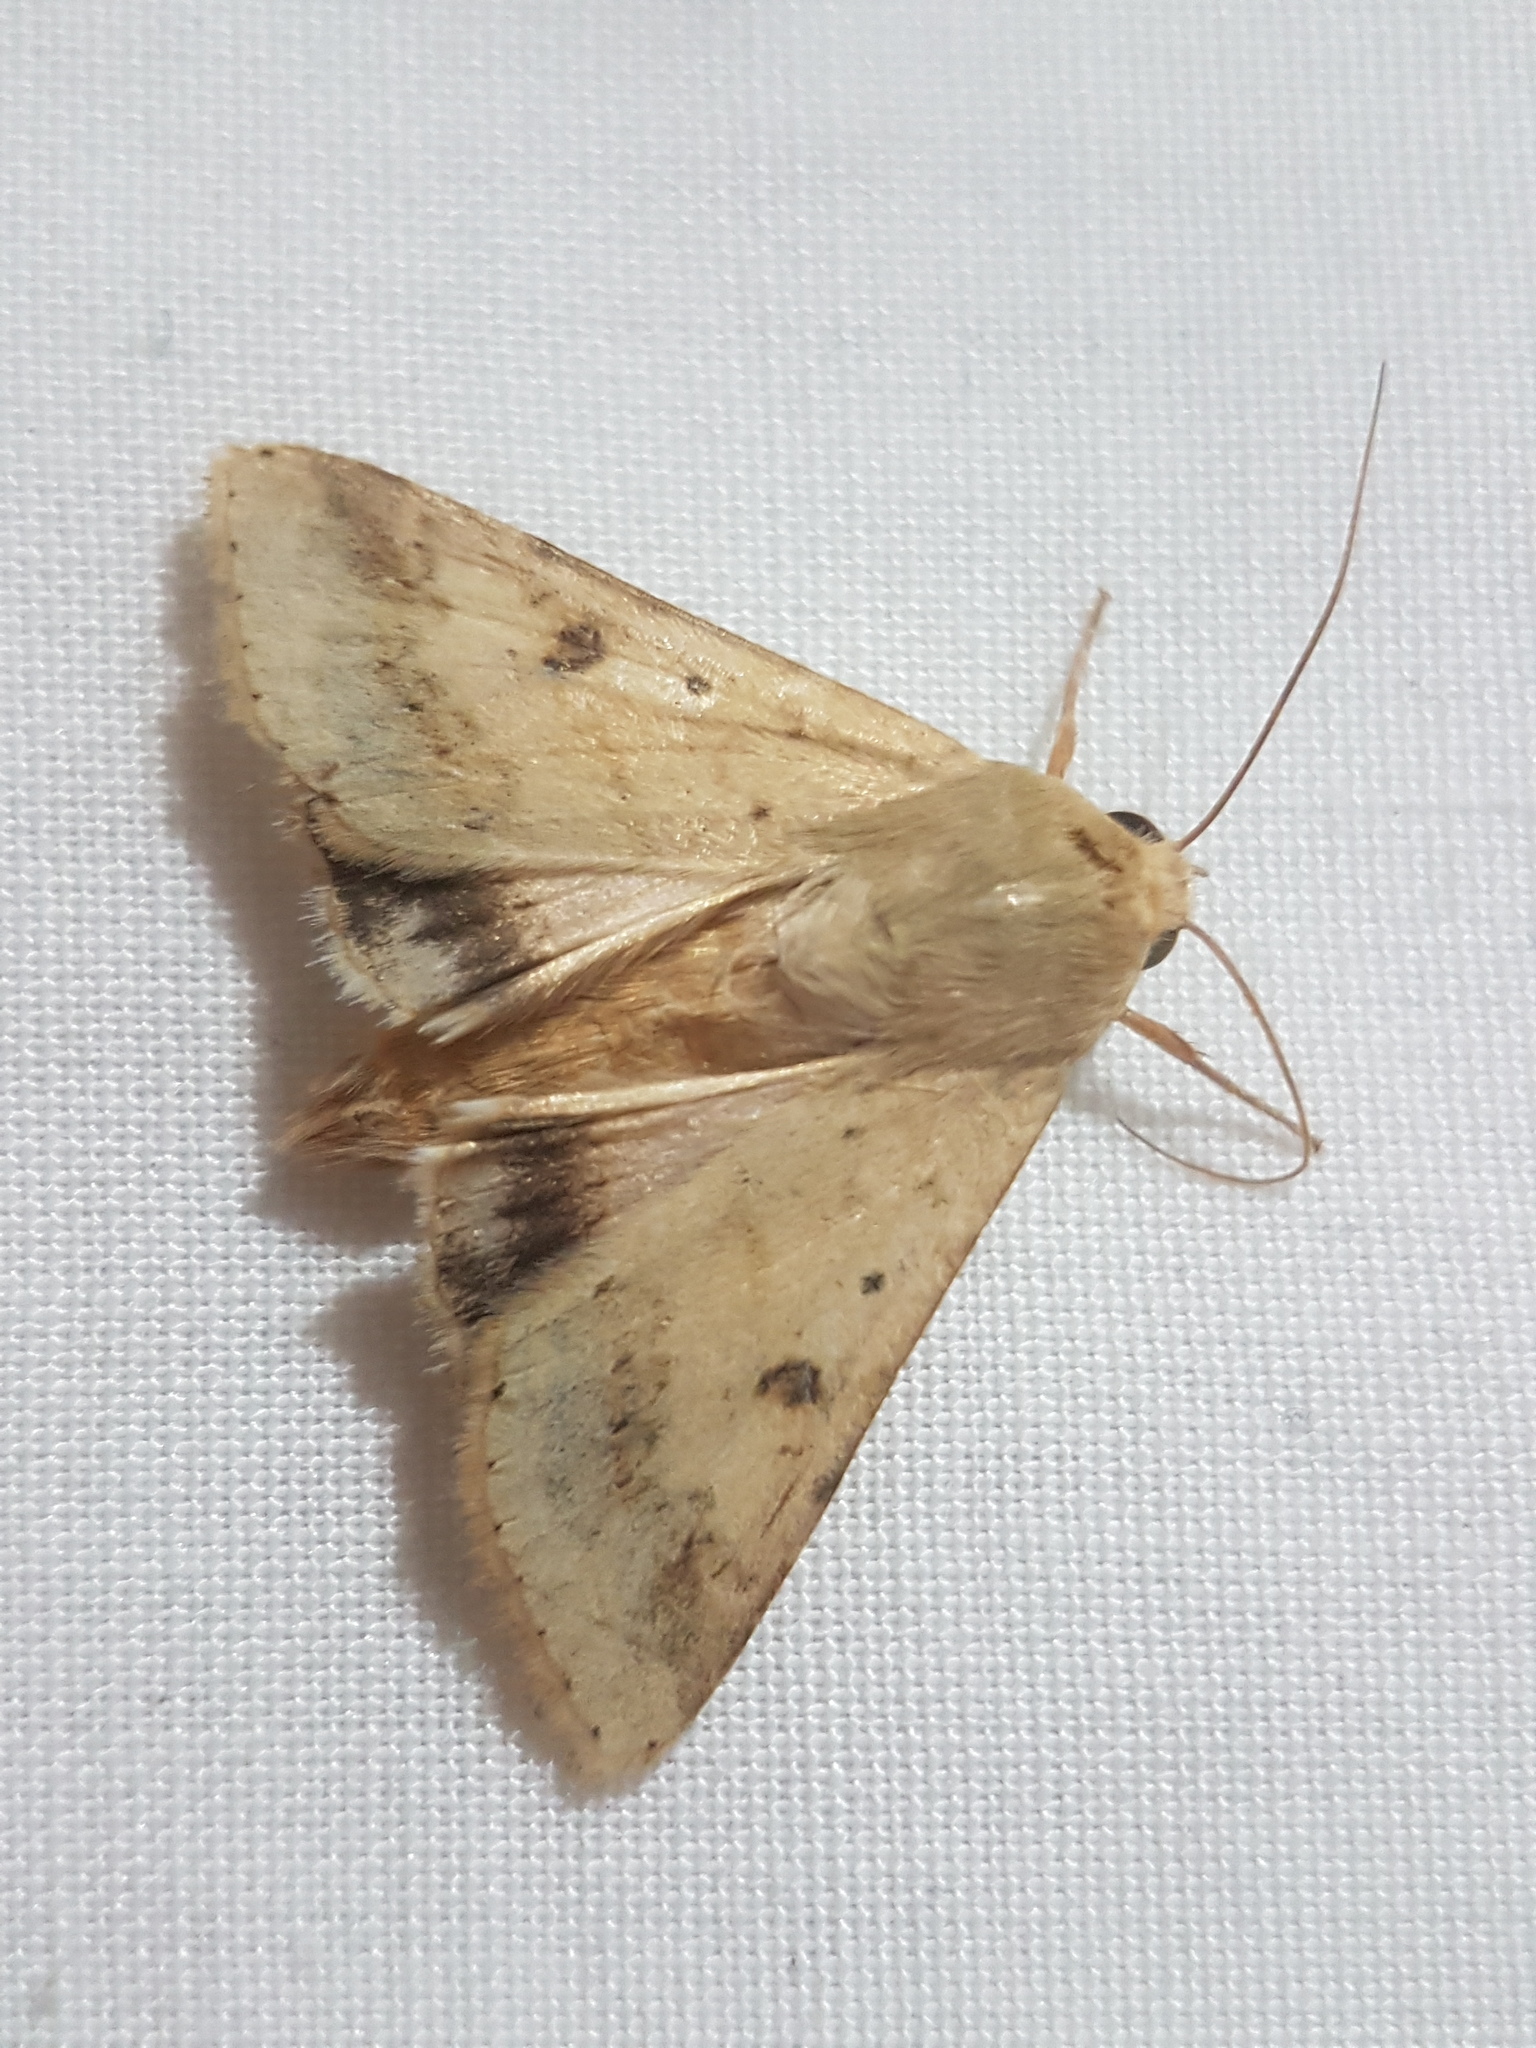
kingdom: Animalia
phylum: Arthropoda
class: Insecta
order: Lepidoptera
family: Noctuidae
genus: Helicoverpa
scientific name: Helicoverpa armigera
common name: Cotton bollworm
